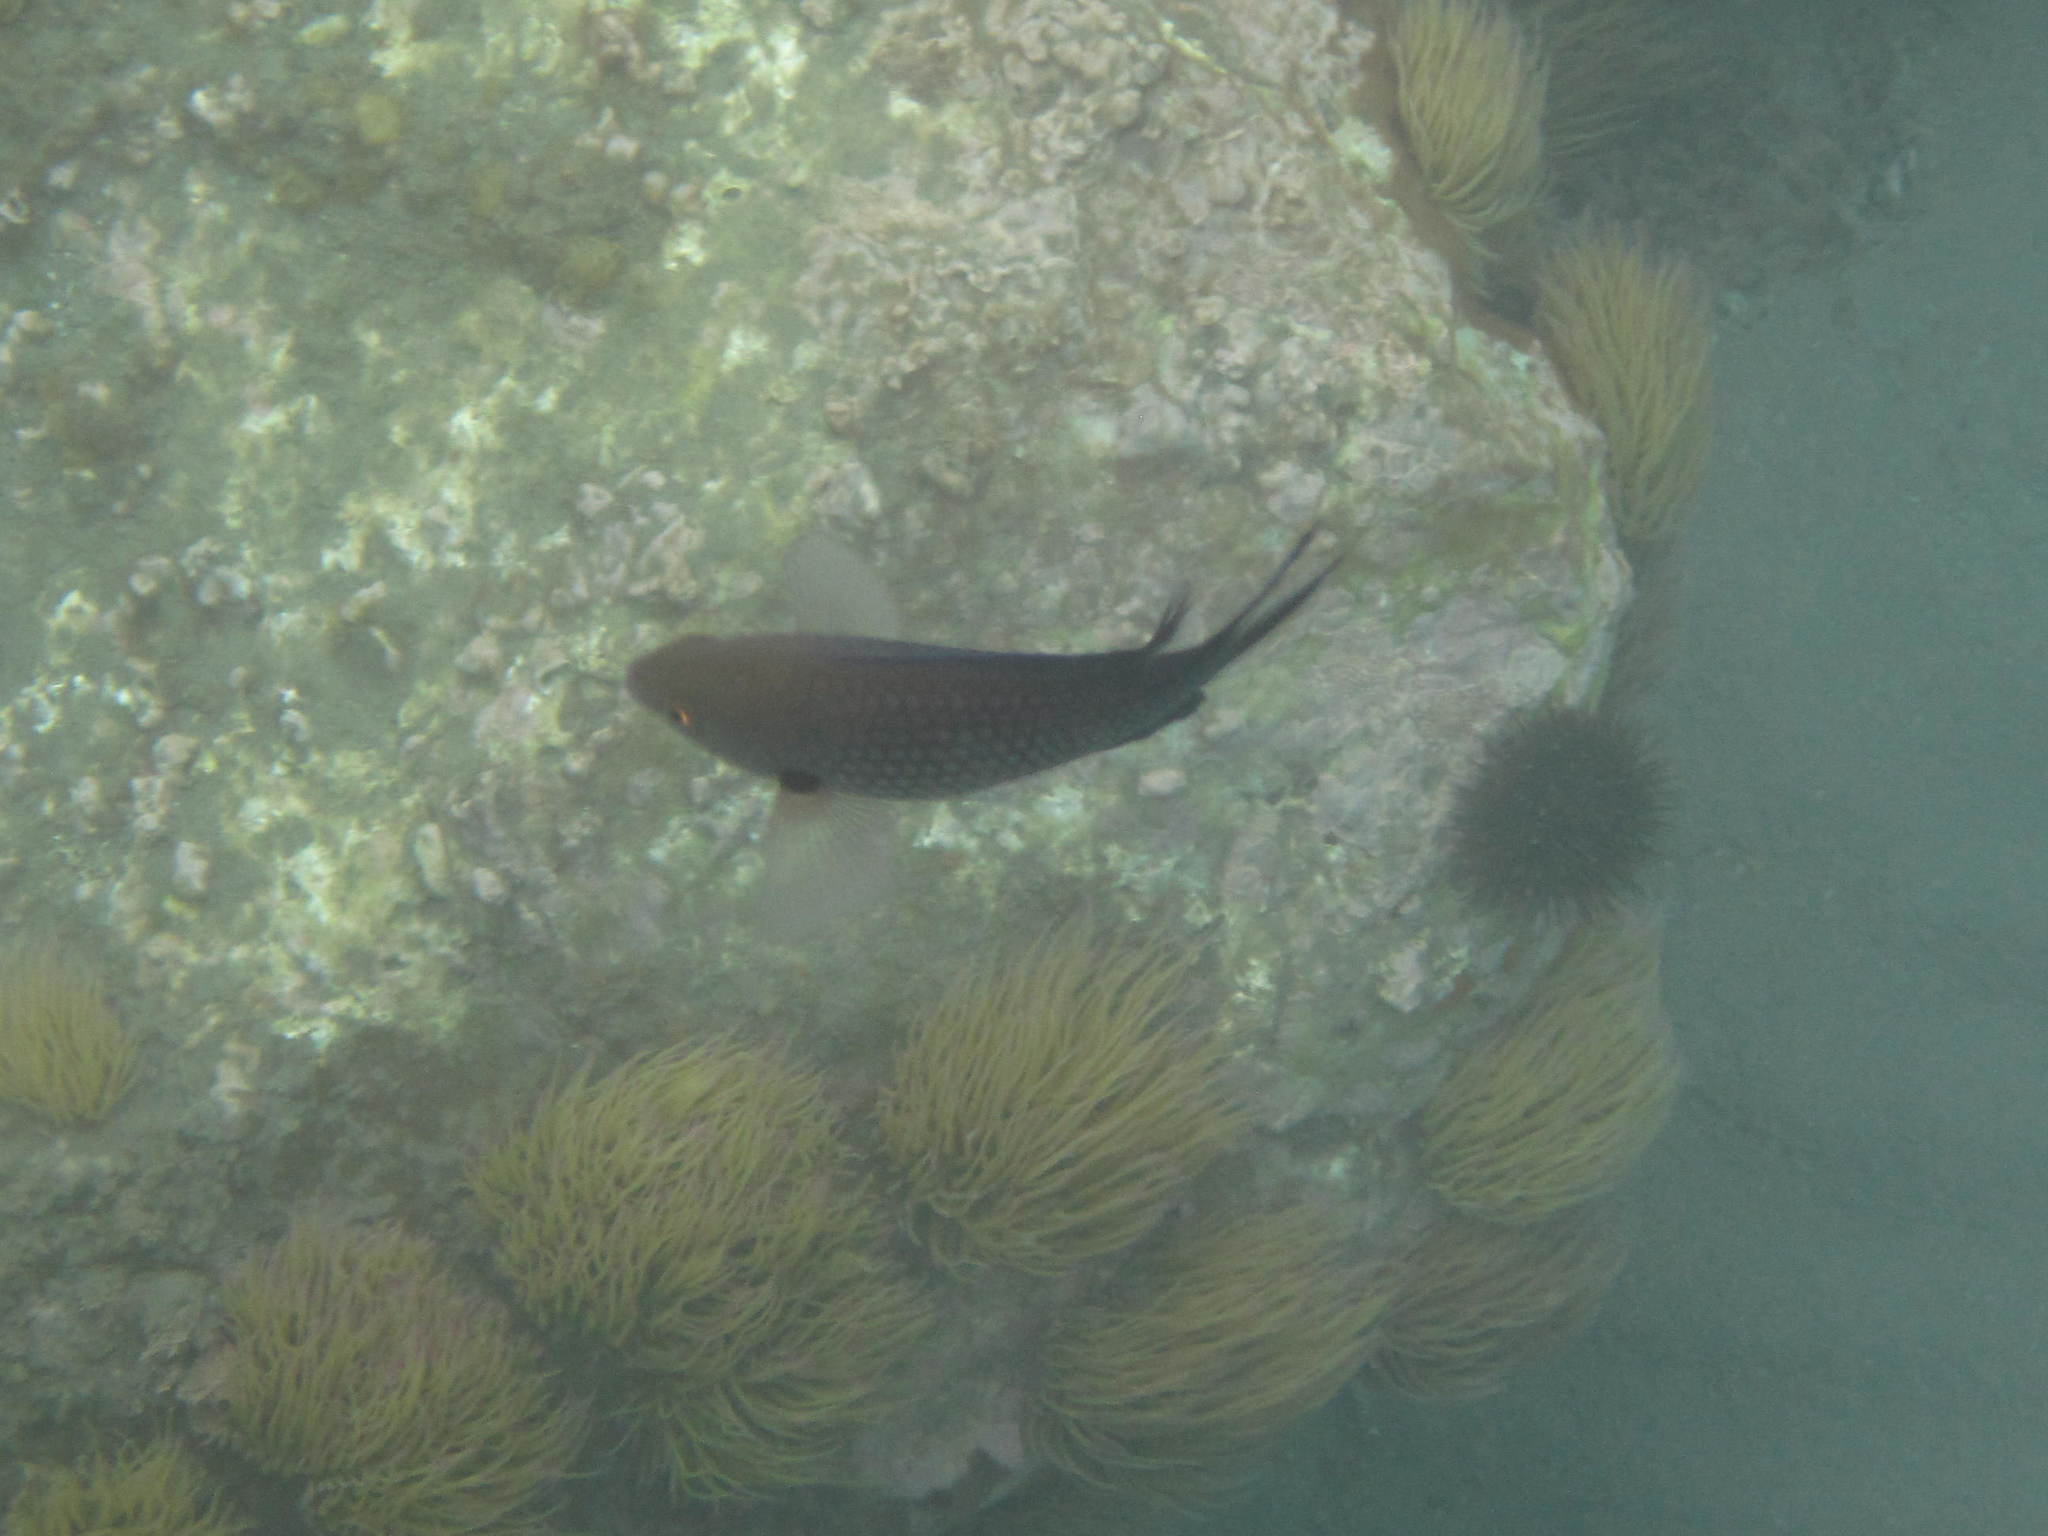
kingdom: Animalia
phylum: Chordata
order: Perciformes
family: Pomacentridae
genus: Chromis
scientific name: Chromis chromis
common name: Damselfish
